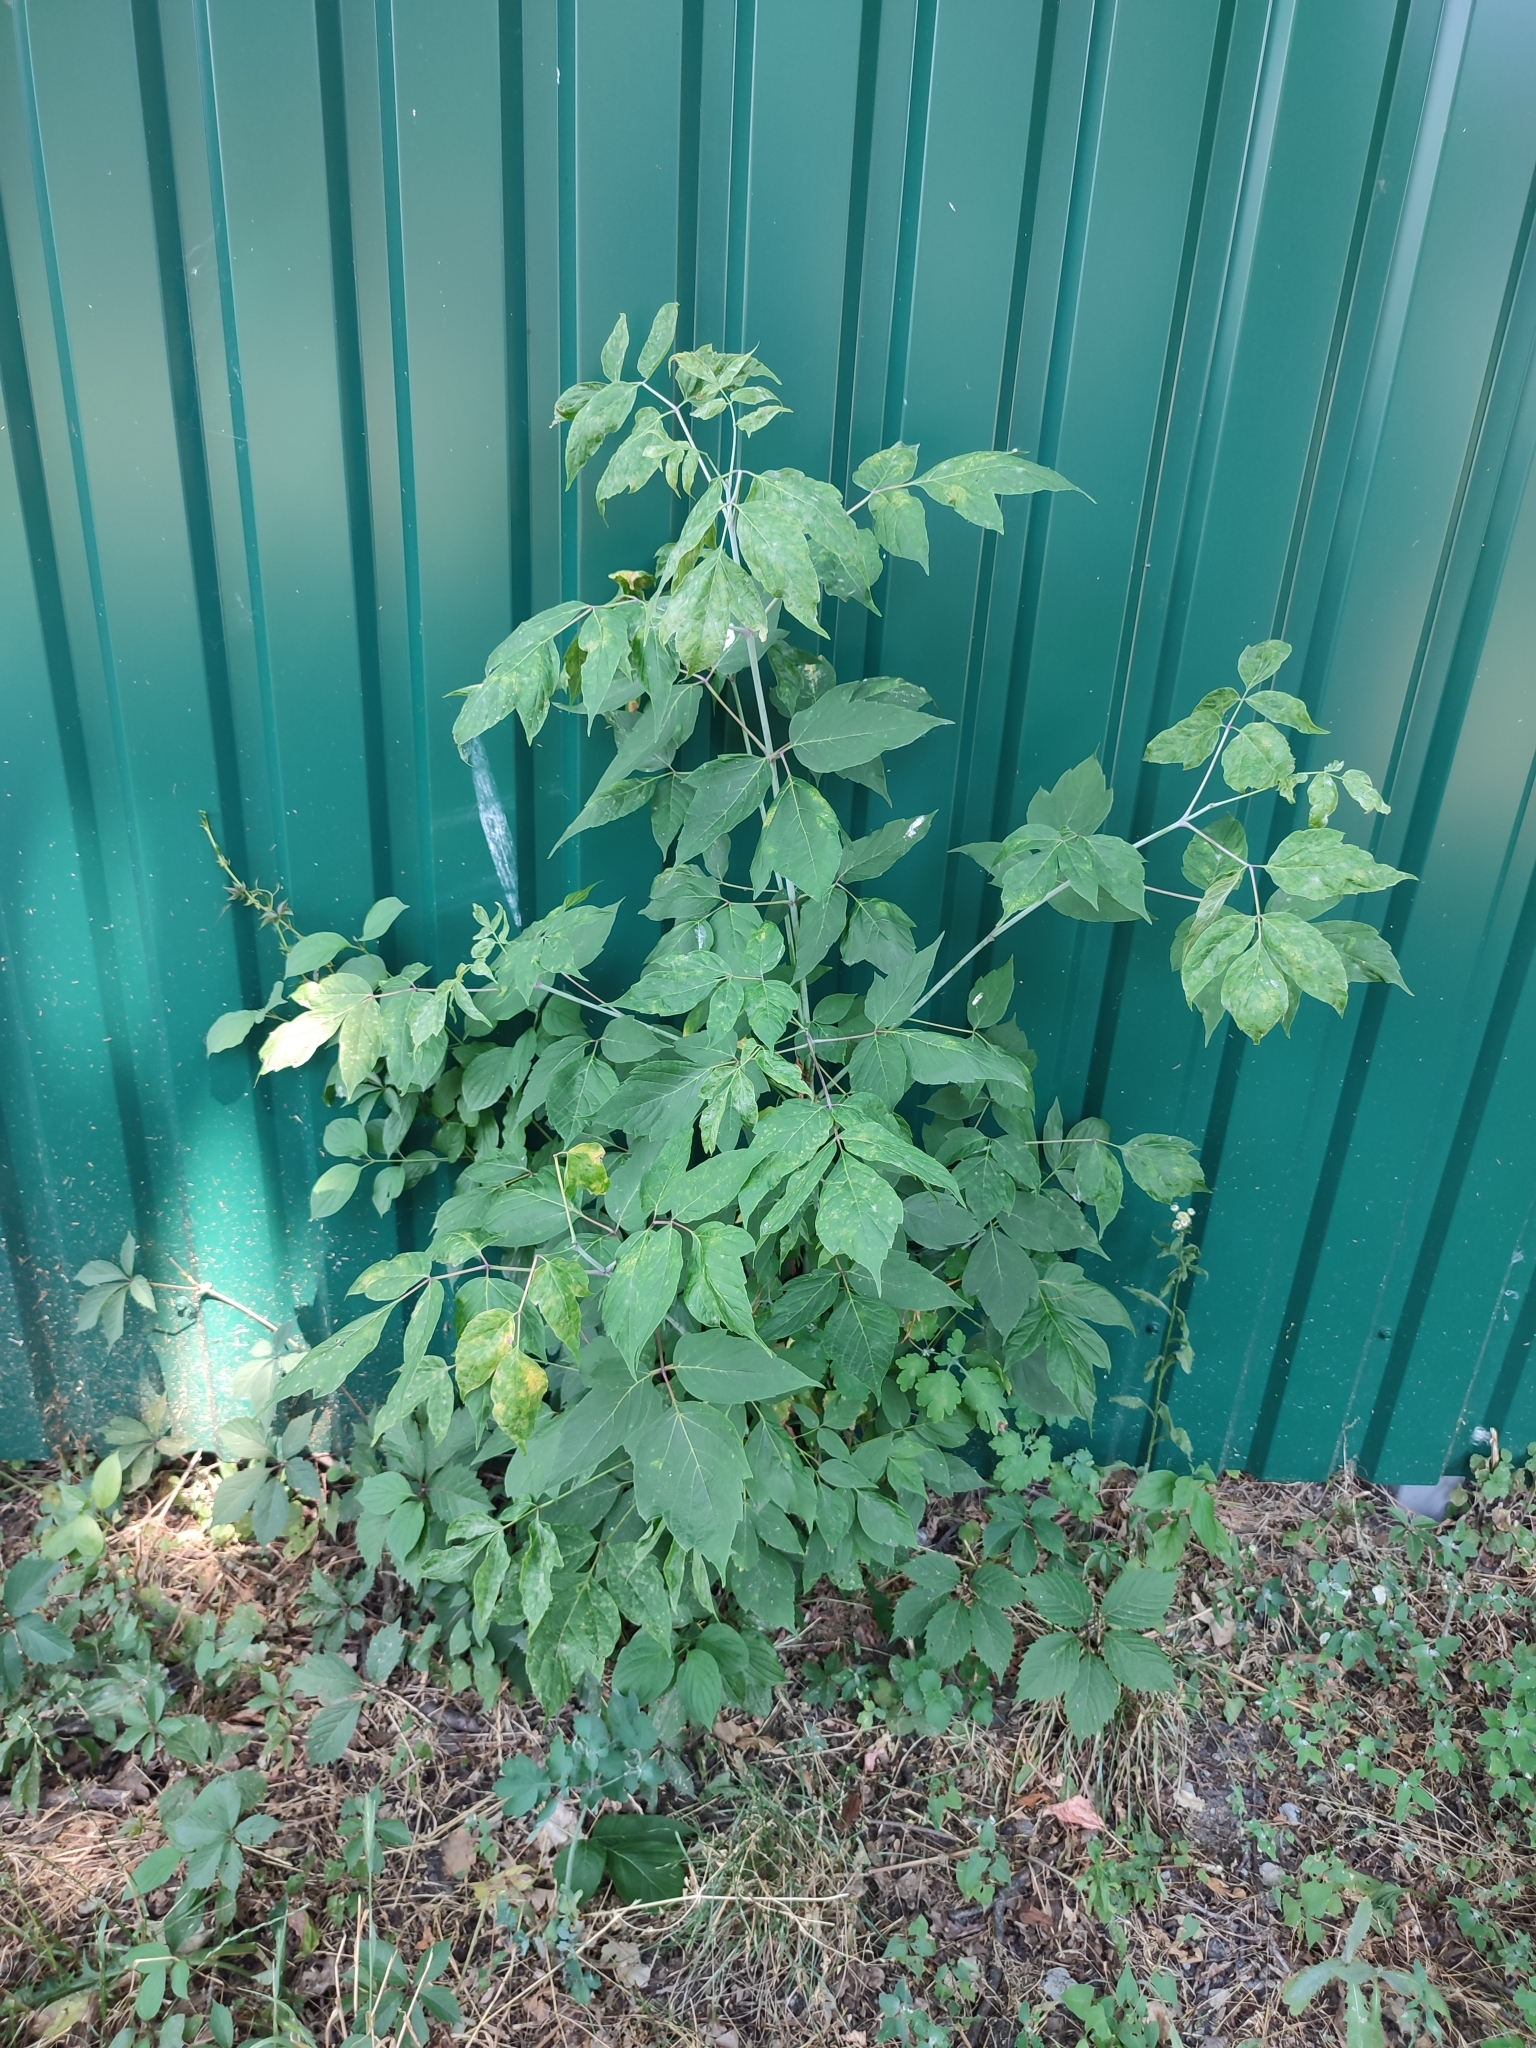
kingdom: Plantae
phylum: Tracheophyta
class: Magnoliopsida
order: Sapindales
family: Sapindaceae
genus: Acer
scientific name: Acer negundo
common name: Ashleaf maple
